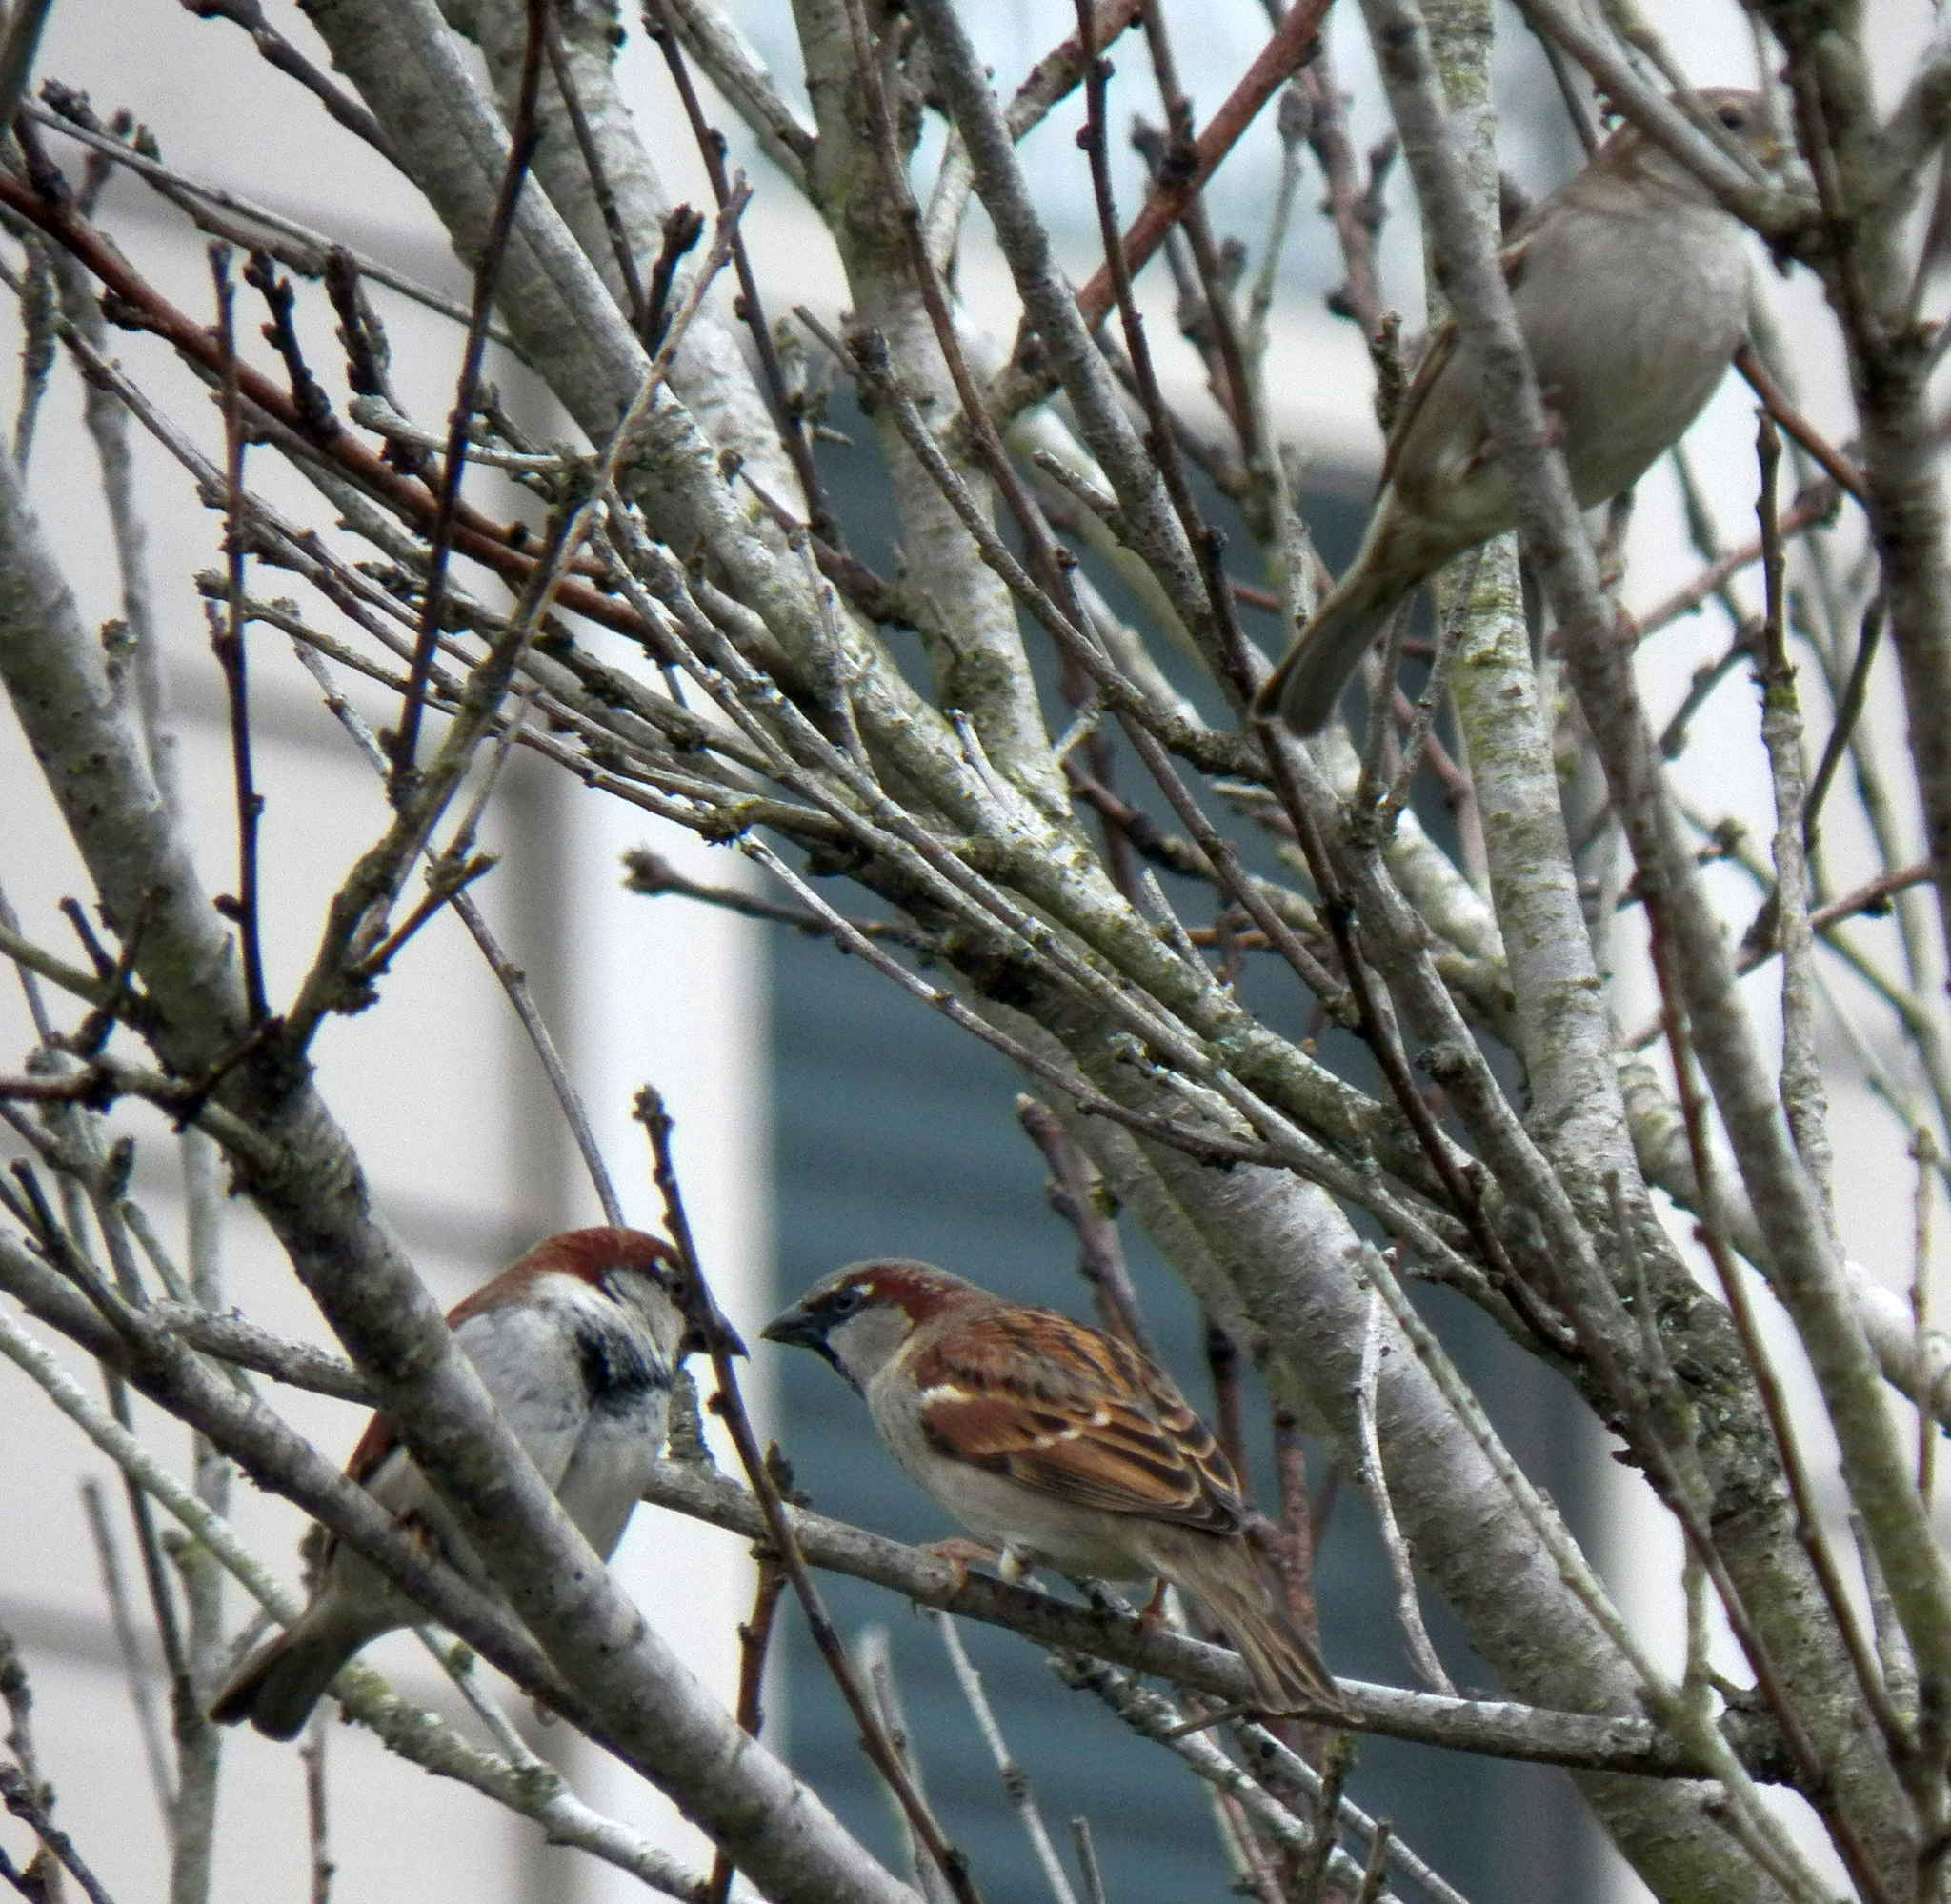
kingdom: Animalia
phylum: Chordata
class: Aves
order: Passeriformes
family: Passeridae
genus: Passer
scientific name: Passer domesticus
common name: House sparrow
